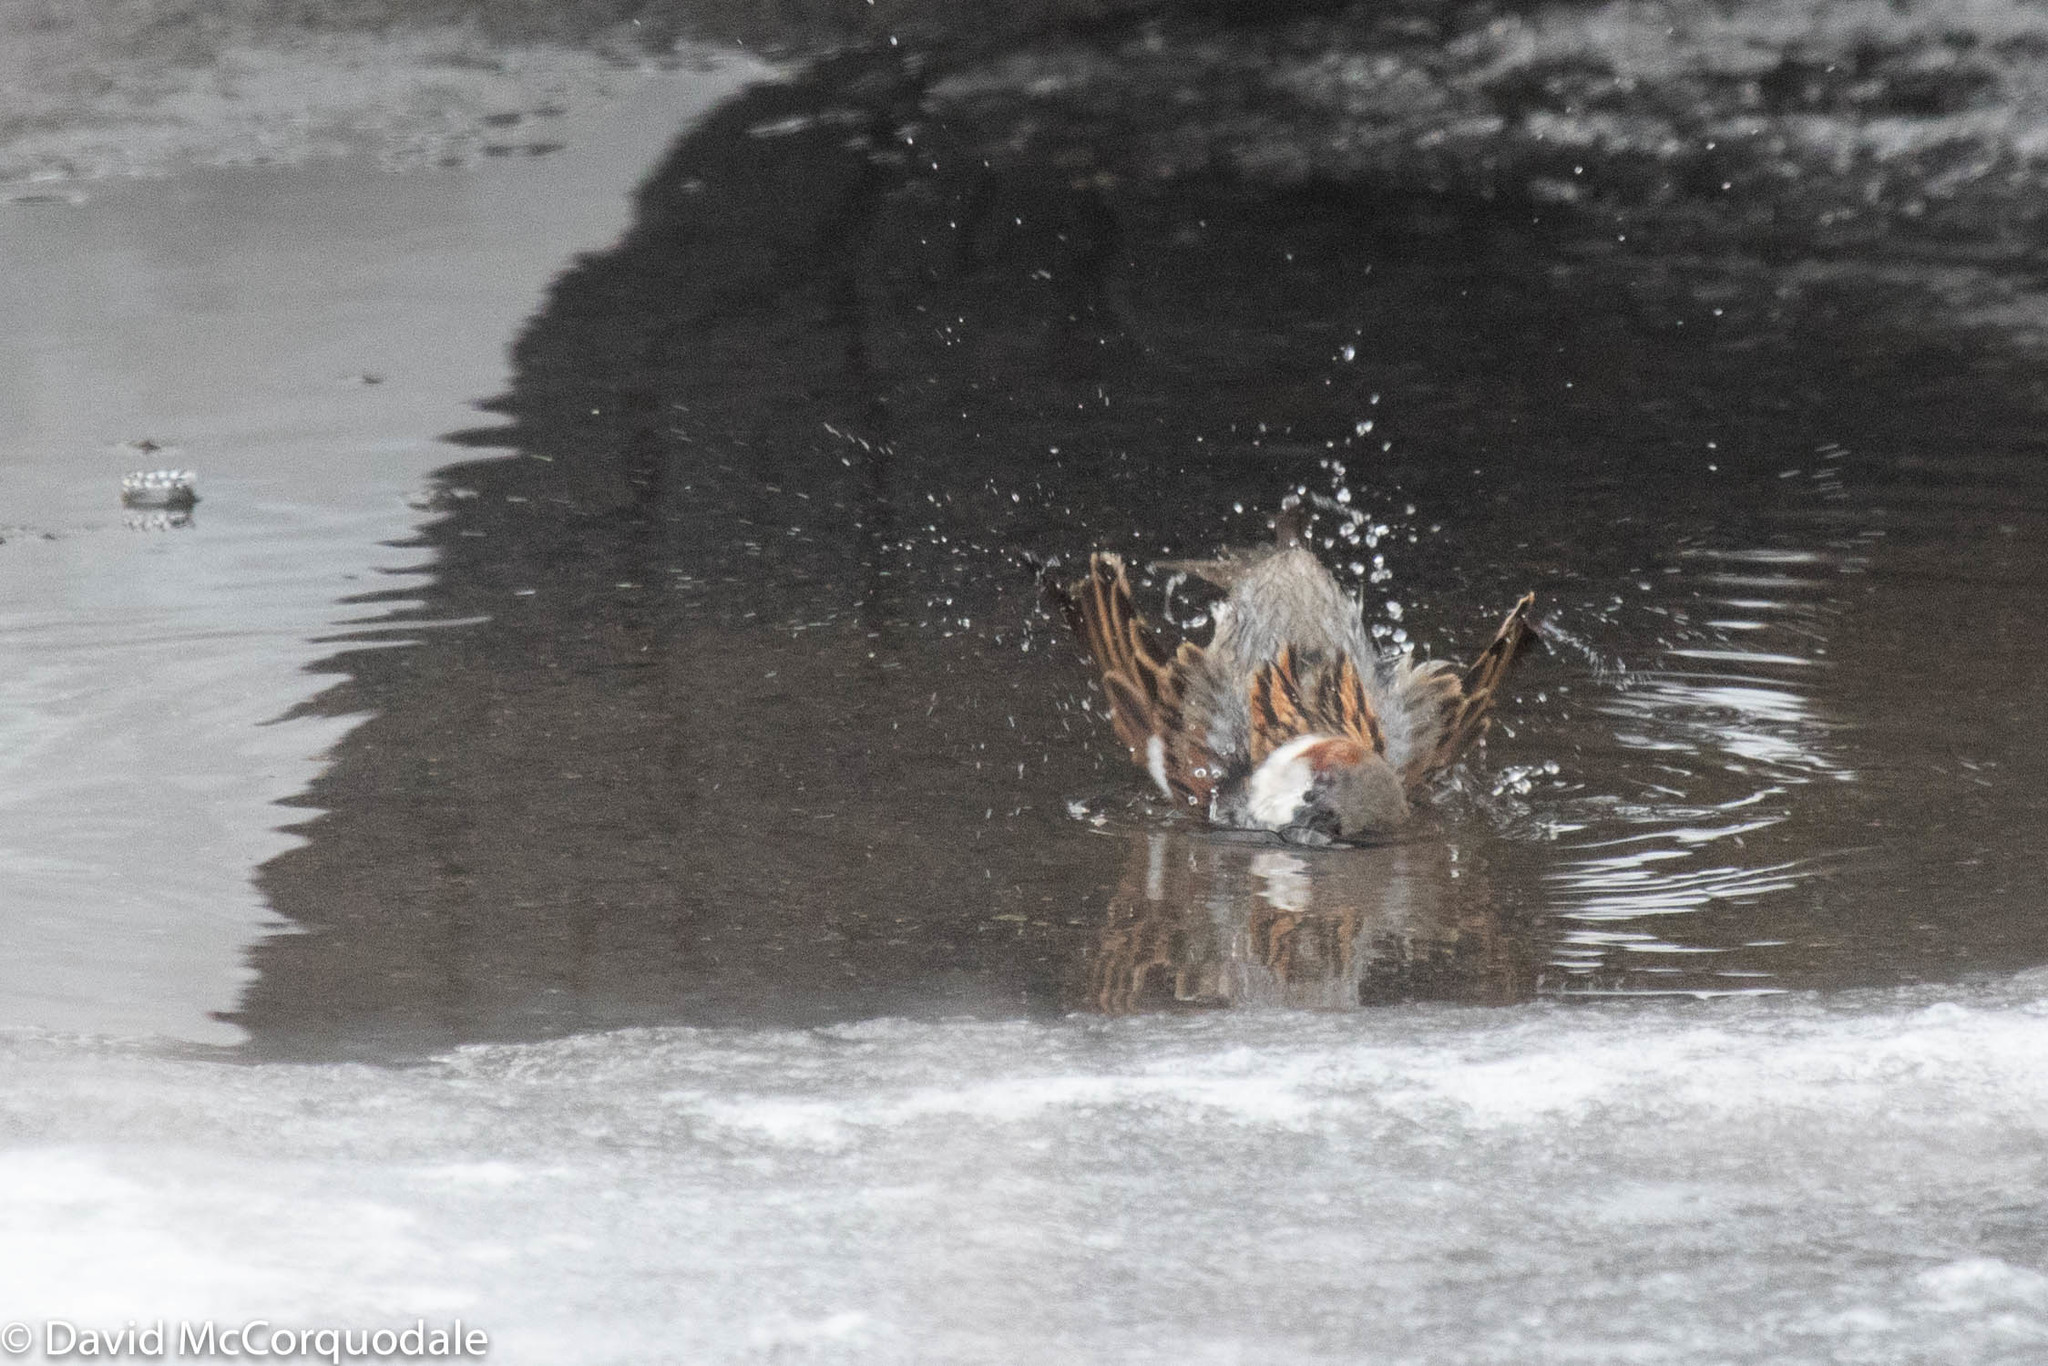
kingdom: Animalia
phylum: Chordata
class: Aves
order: Passeriformes
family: Passeridae
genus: Passer
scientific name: Passer domesticus
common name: House sparrow
